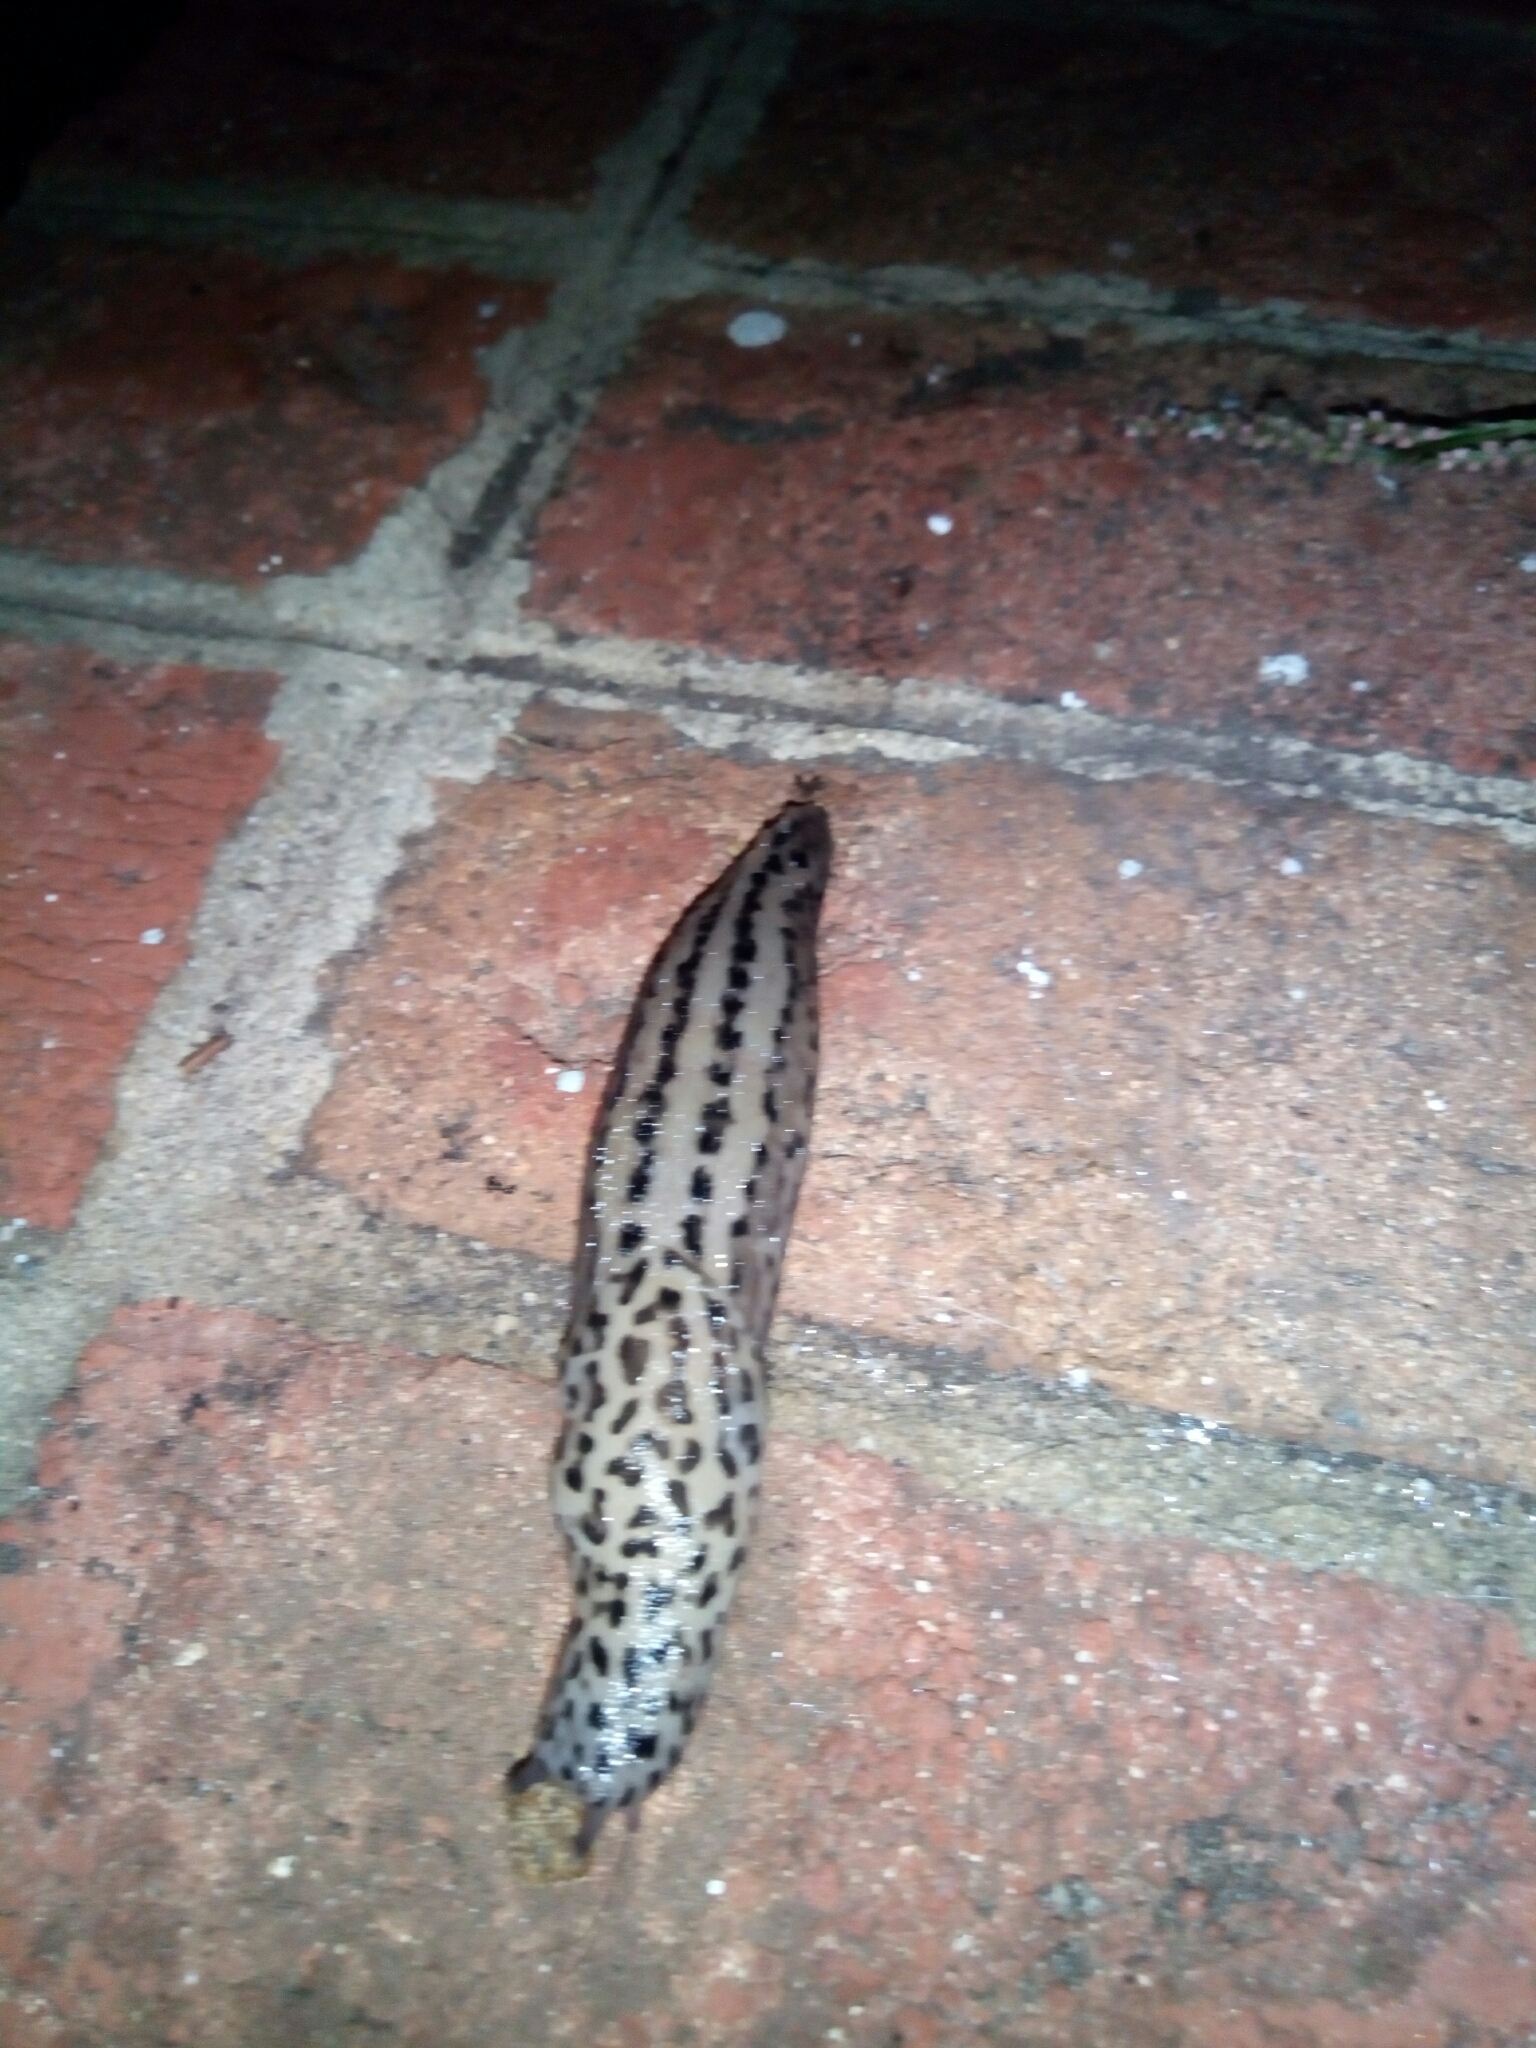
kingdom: Animalia
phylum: Mollusca
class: Gastropoda
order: Stylommatophora
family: Limacidae
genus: Limax
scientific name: Limax maximus
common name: Great grey slug
